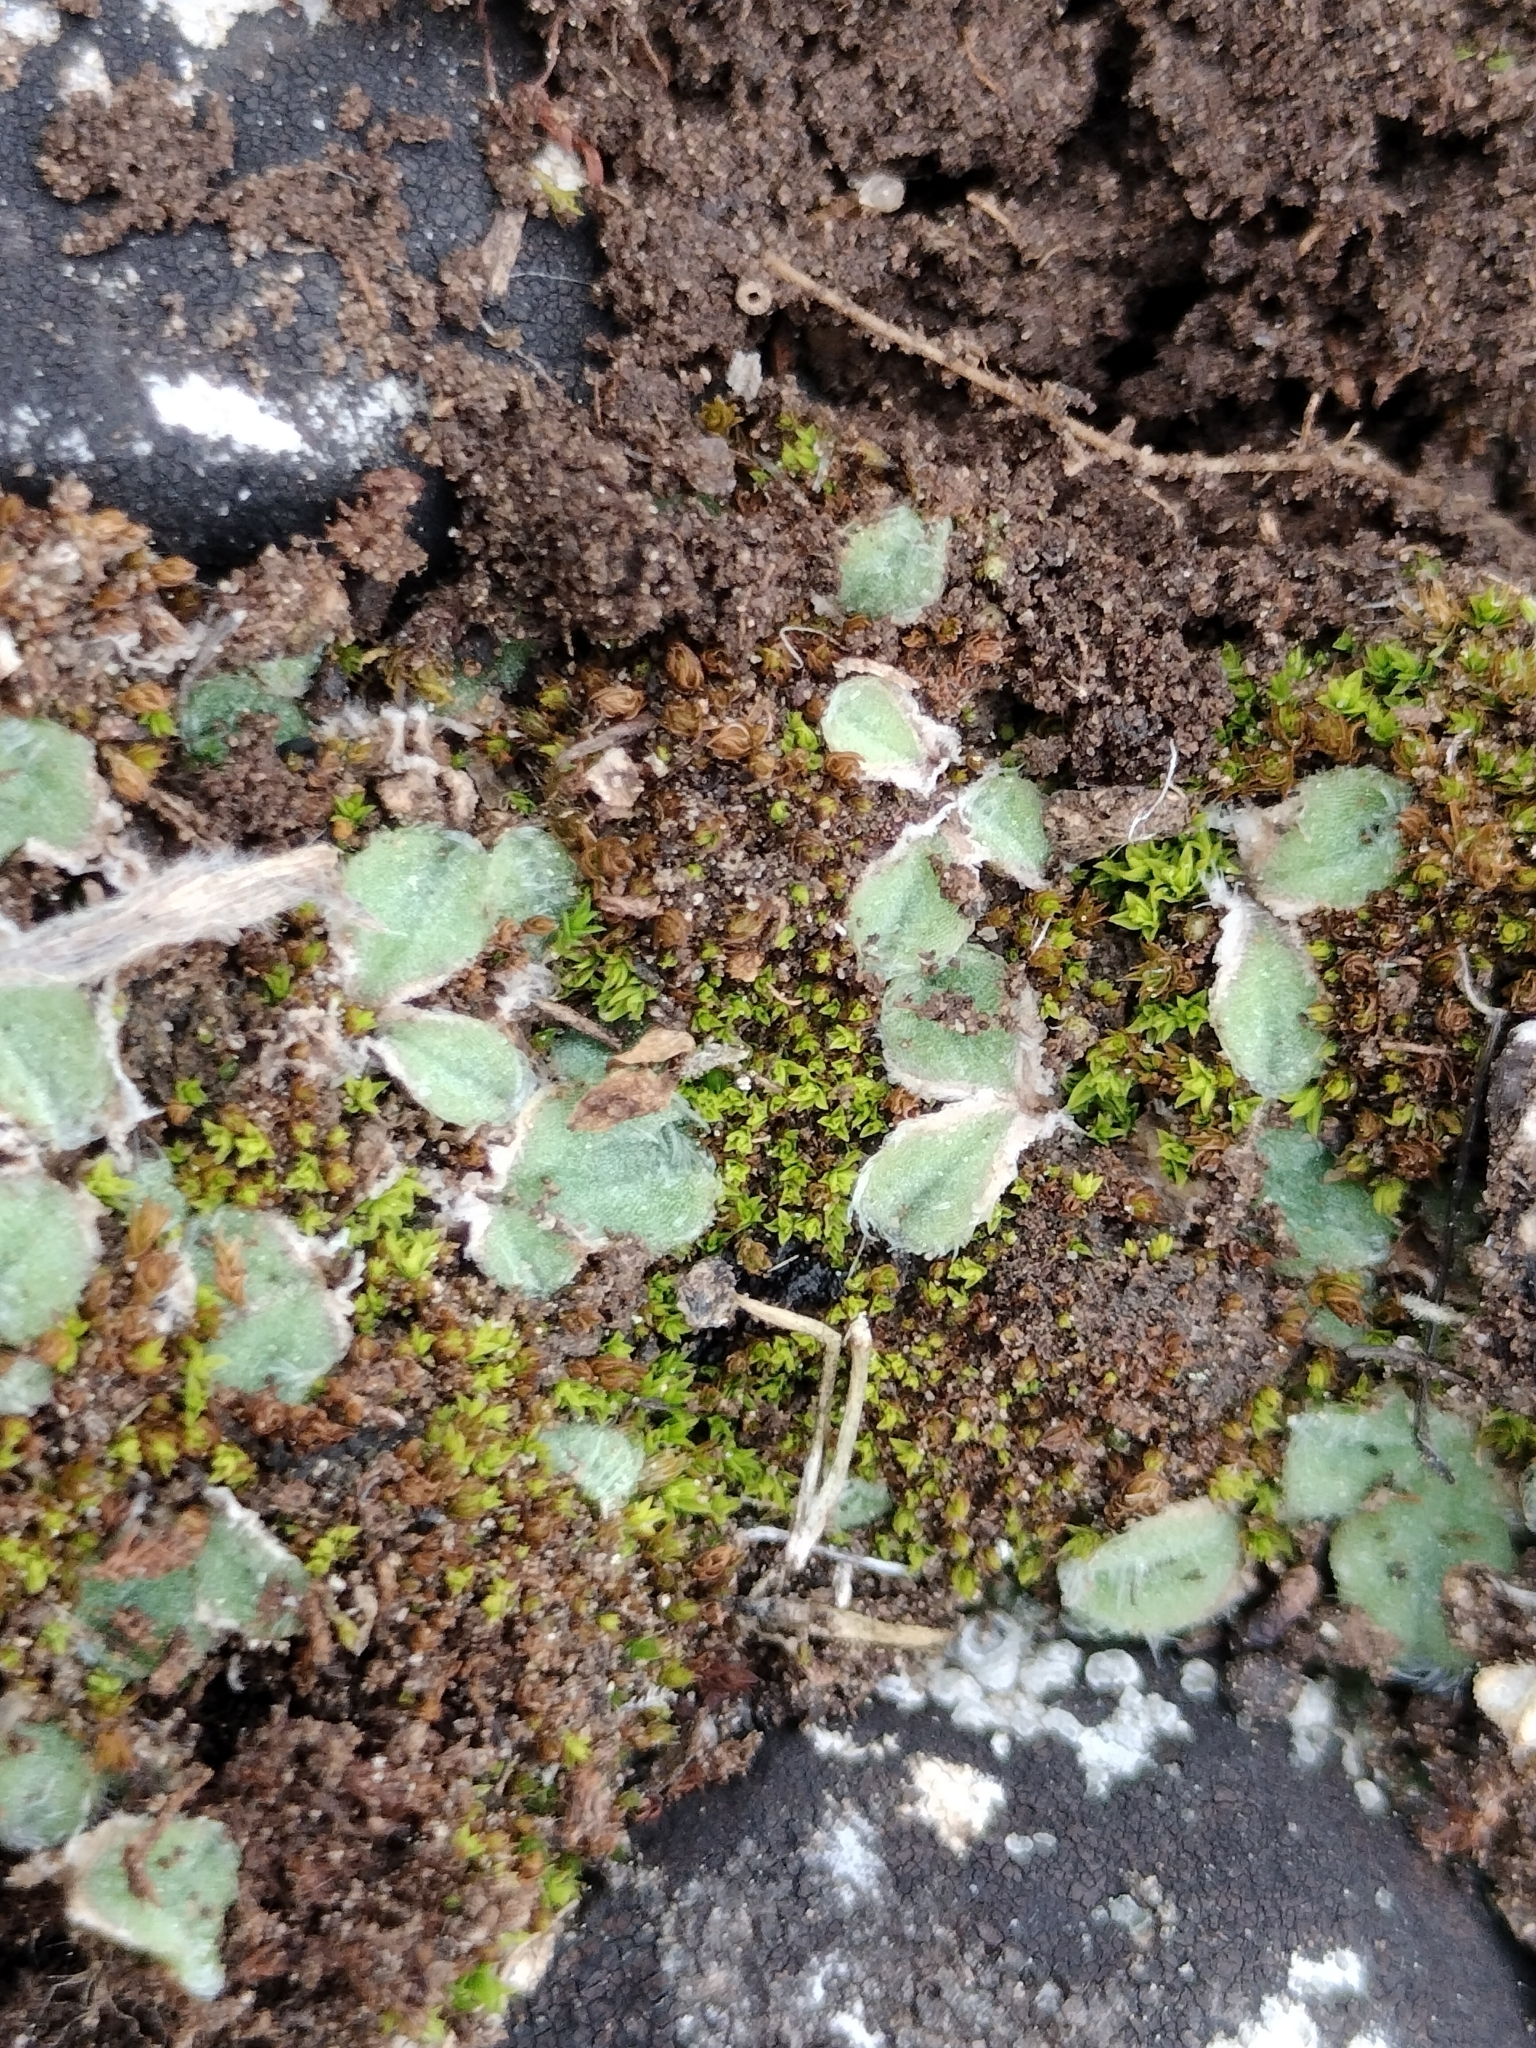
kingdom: Plantae
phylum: Marchantiophyta
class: Marchantiopsida
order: Marchantiales
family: Ricciaceae
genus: Riccia
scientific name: Riccia ciliifera
